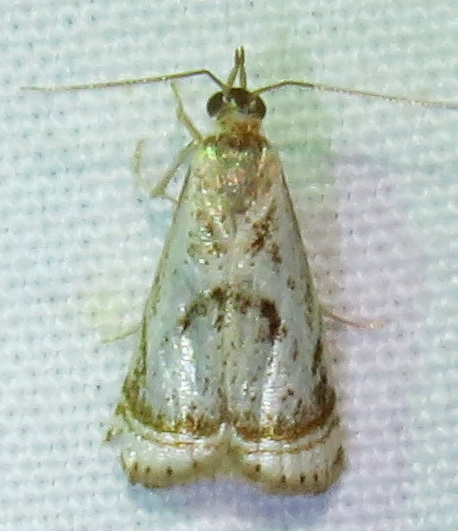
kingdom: Animalia
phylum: Arthropoda
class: Insecta
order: Lepidoptera
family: Crambidae
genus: Microcrambus
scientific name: Microcrambus elegans
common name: Elegant grass-veneer
